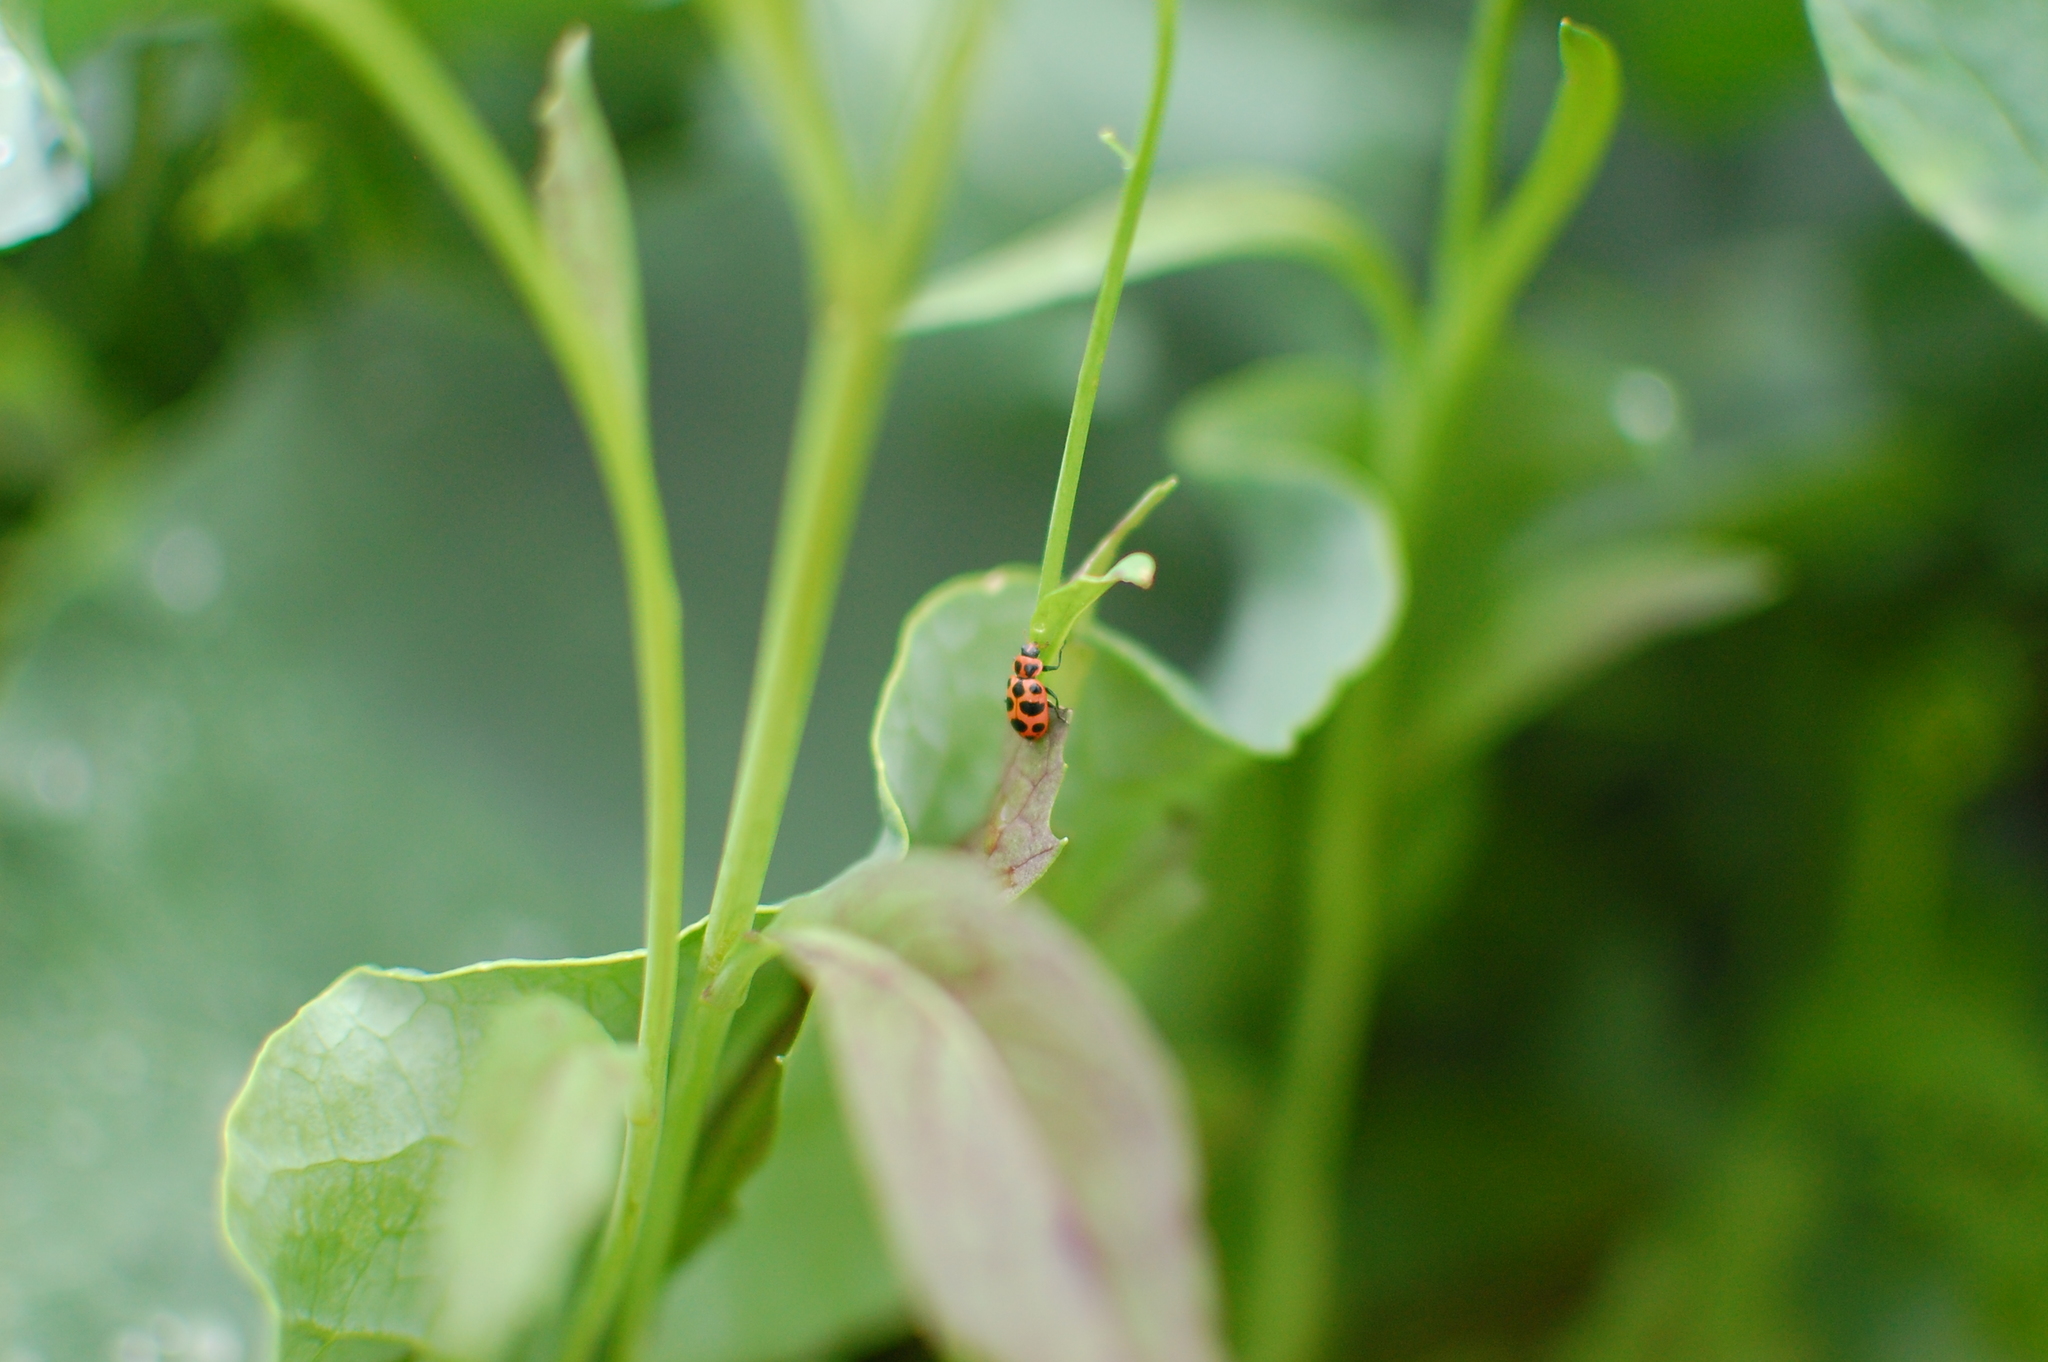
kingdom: Animalia
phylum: Arthropoda
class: Insecta
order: Coleoptera
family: Coccinellidae
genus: Coleomegilla
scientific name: Coleomegilla maculata
